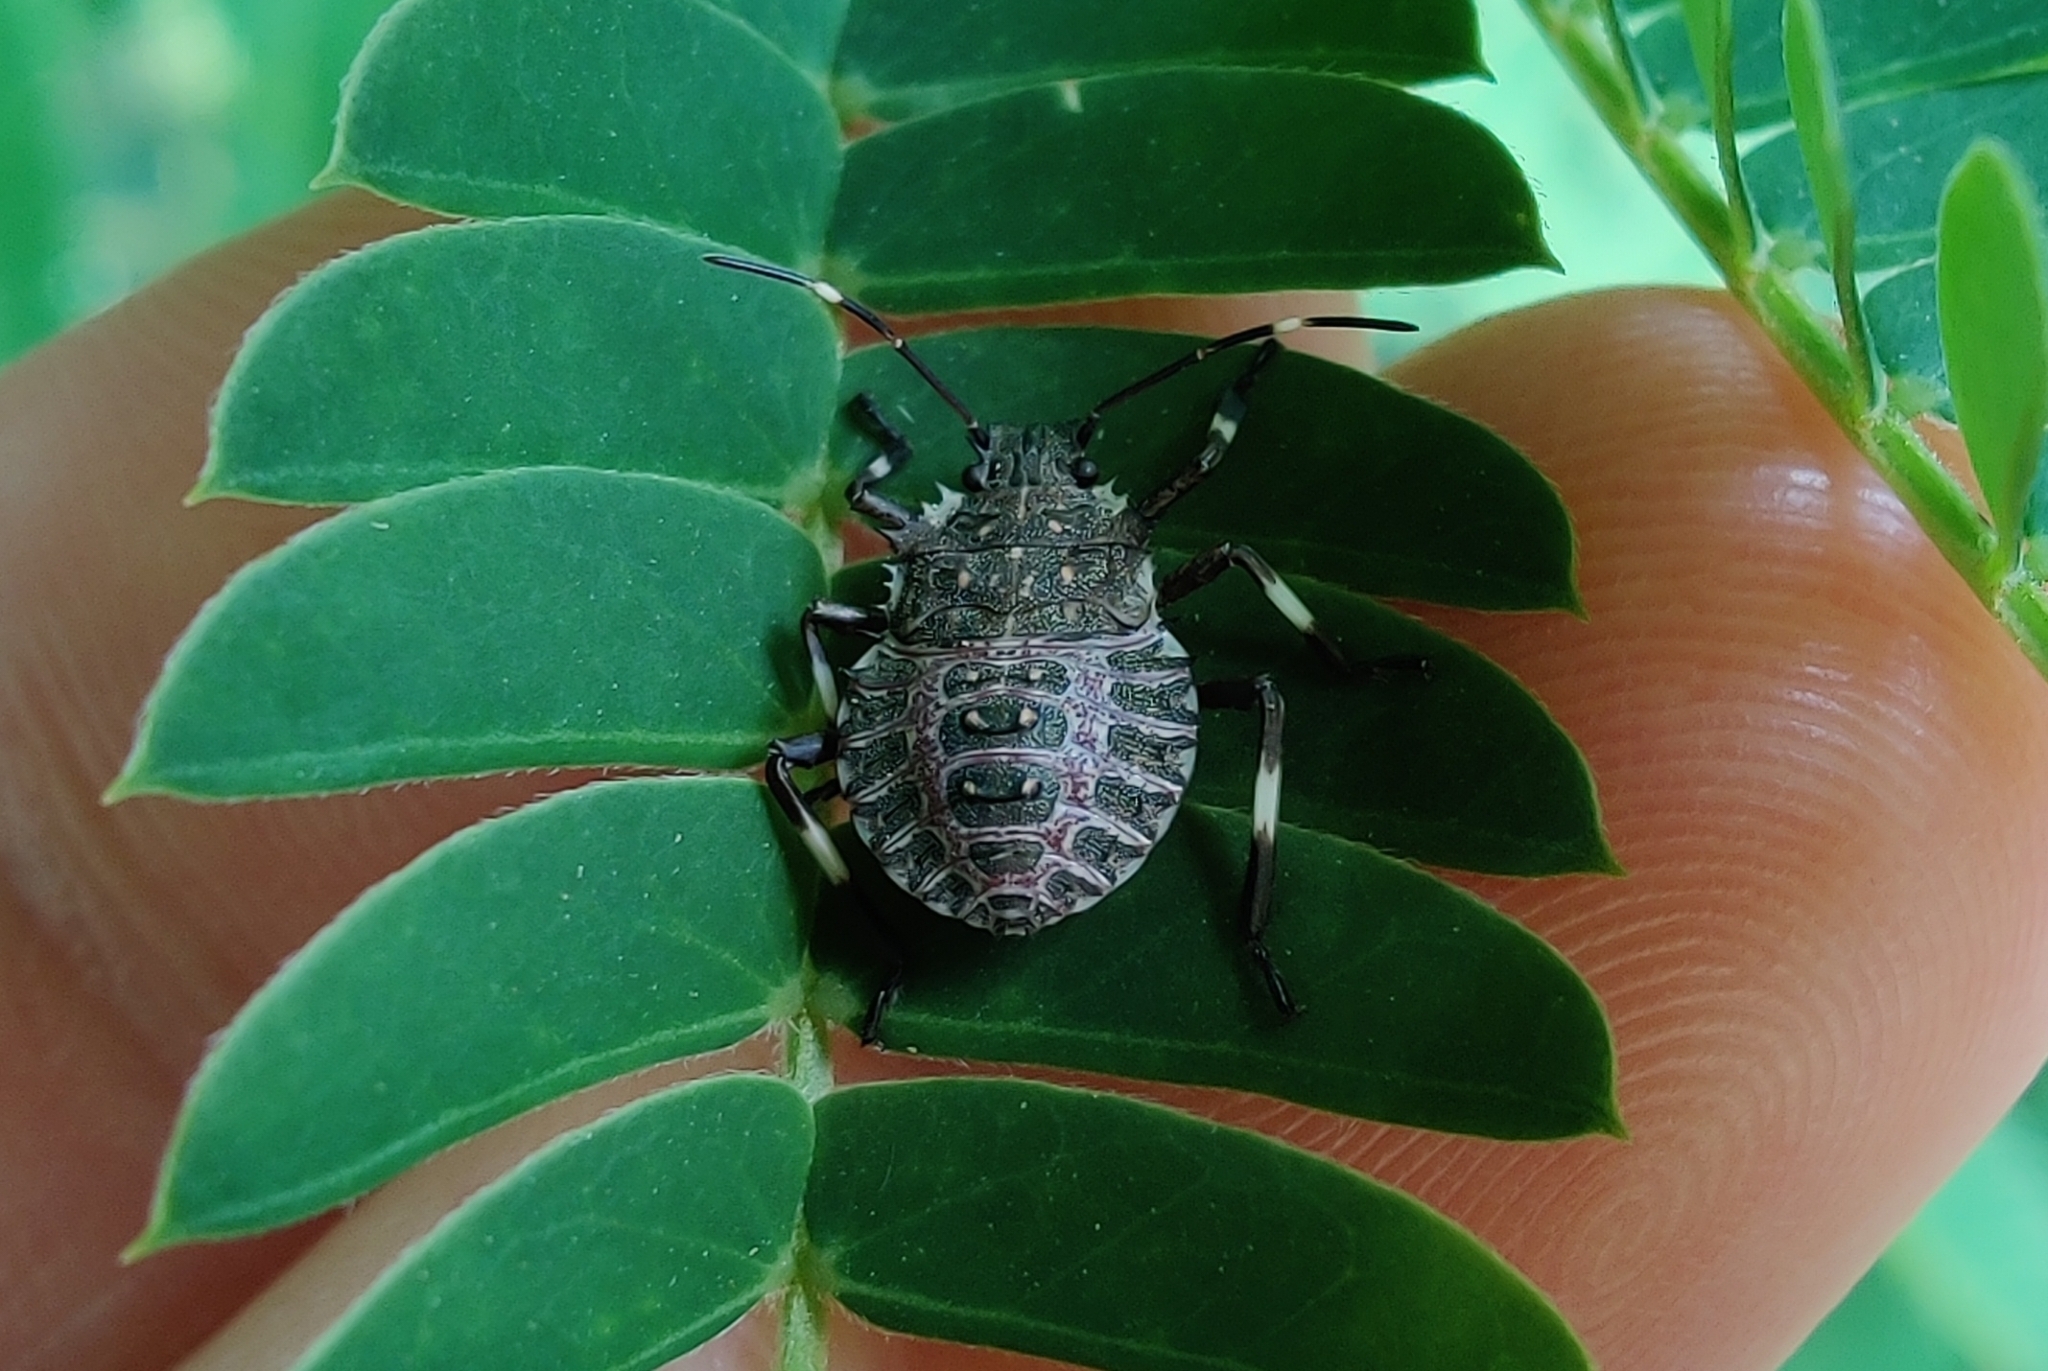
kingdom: Animalia
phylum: Arthropoda
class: Insecta
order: Hemiptera
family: Pentatomidae
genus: Halyomorpha
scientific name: Halyomorpha halys
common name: Brown marmorated stink bug
